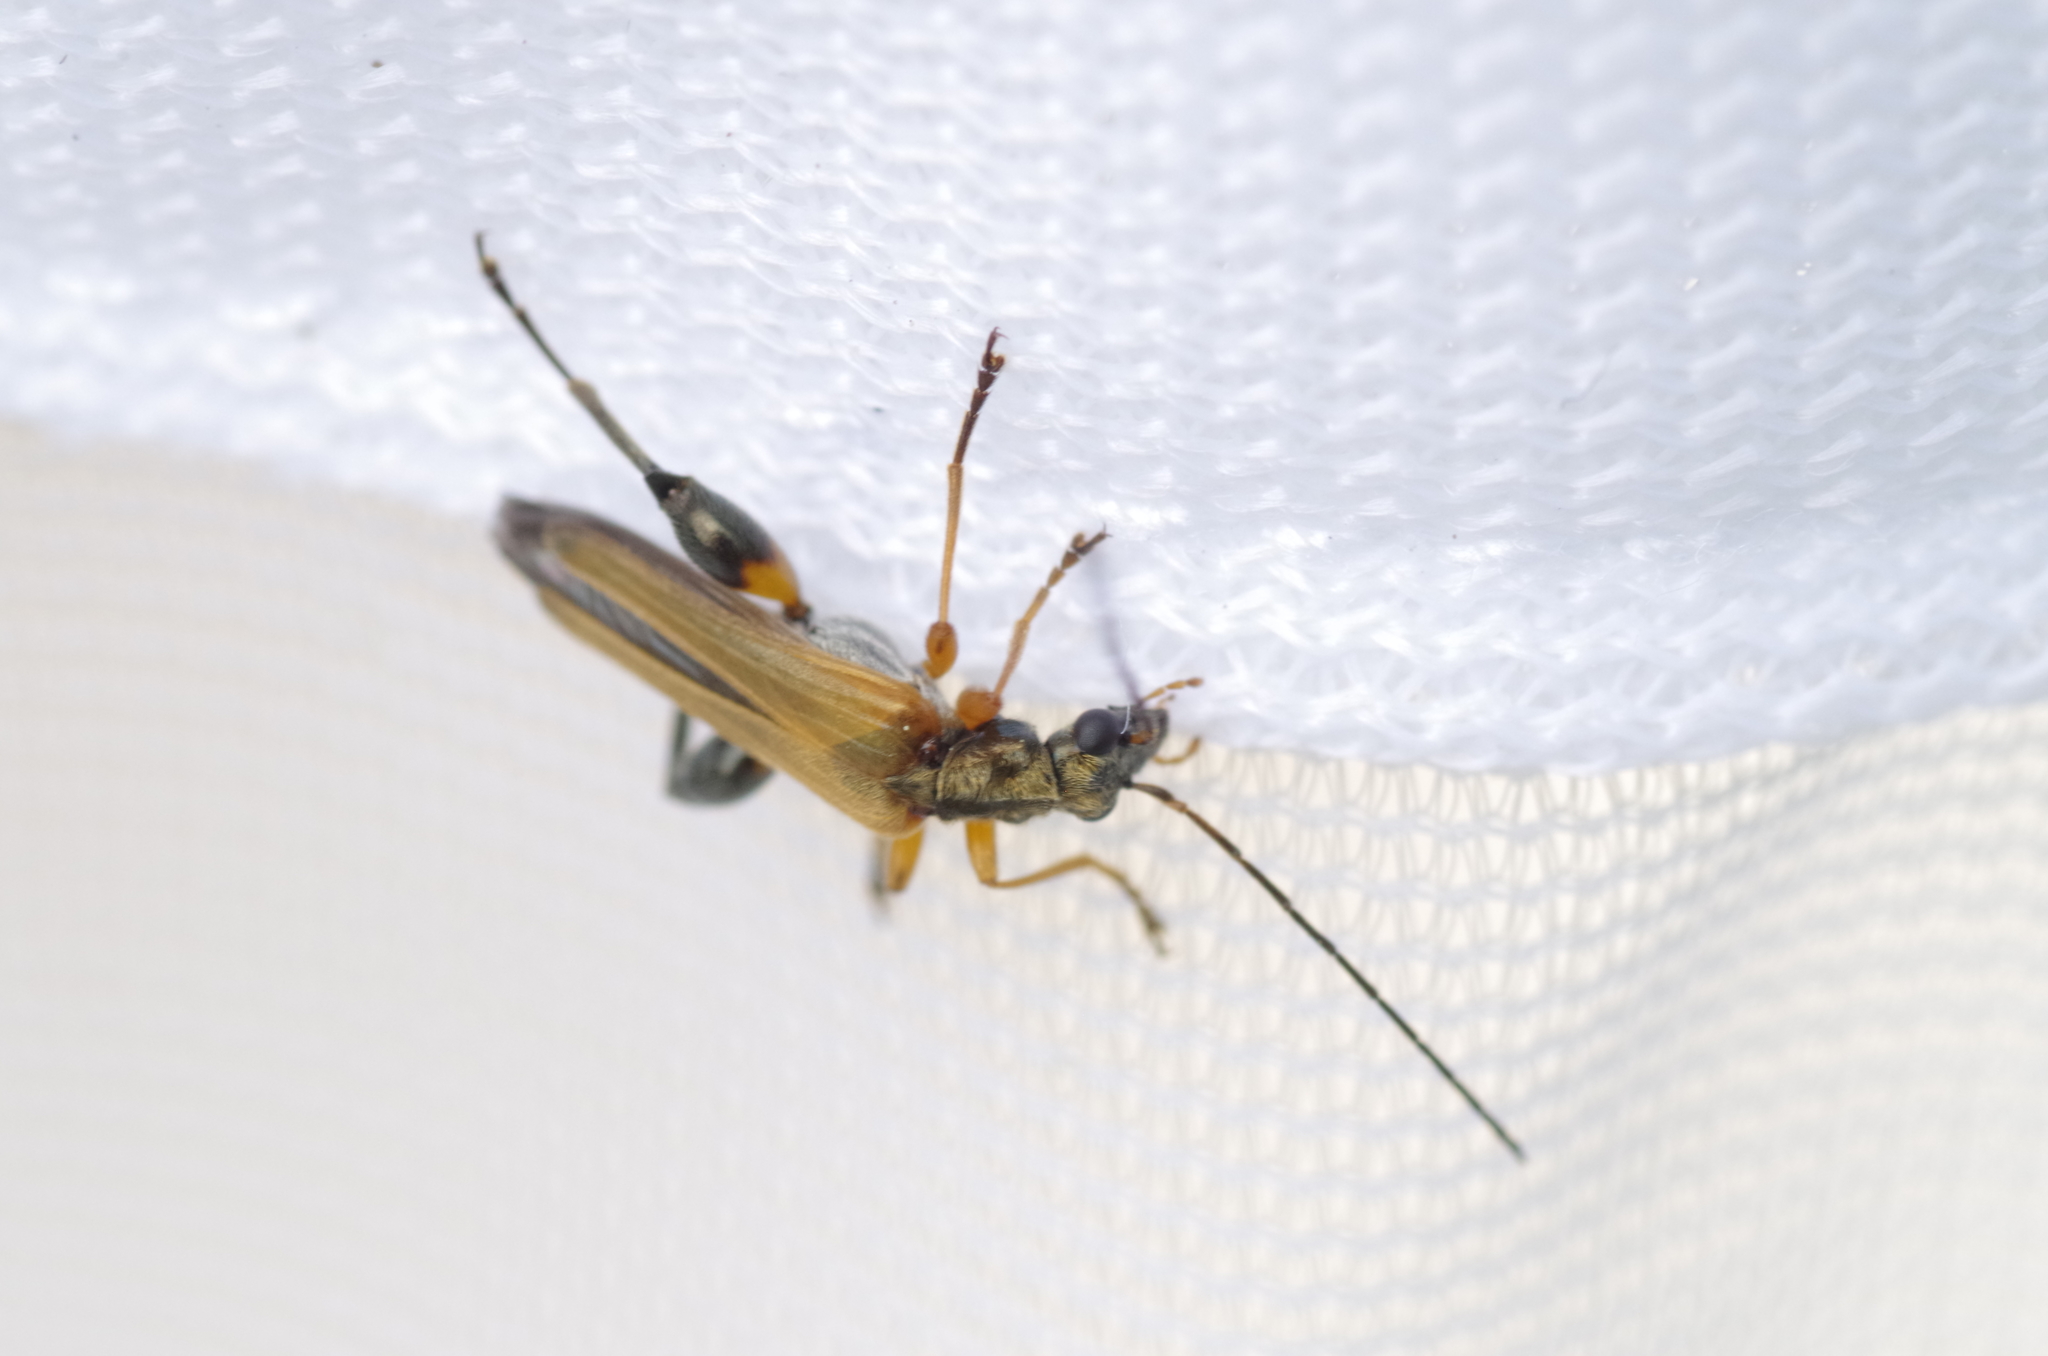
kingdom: Animalia
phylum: Arthropoda
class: Insecta
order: Coleoptera
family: Oedemeridae
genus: Oedemera
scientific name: Oedemera podagrariae
